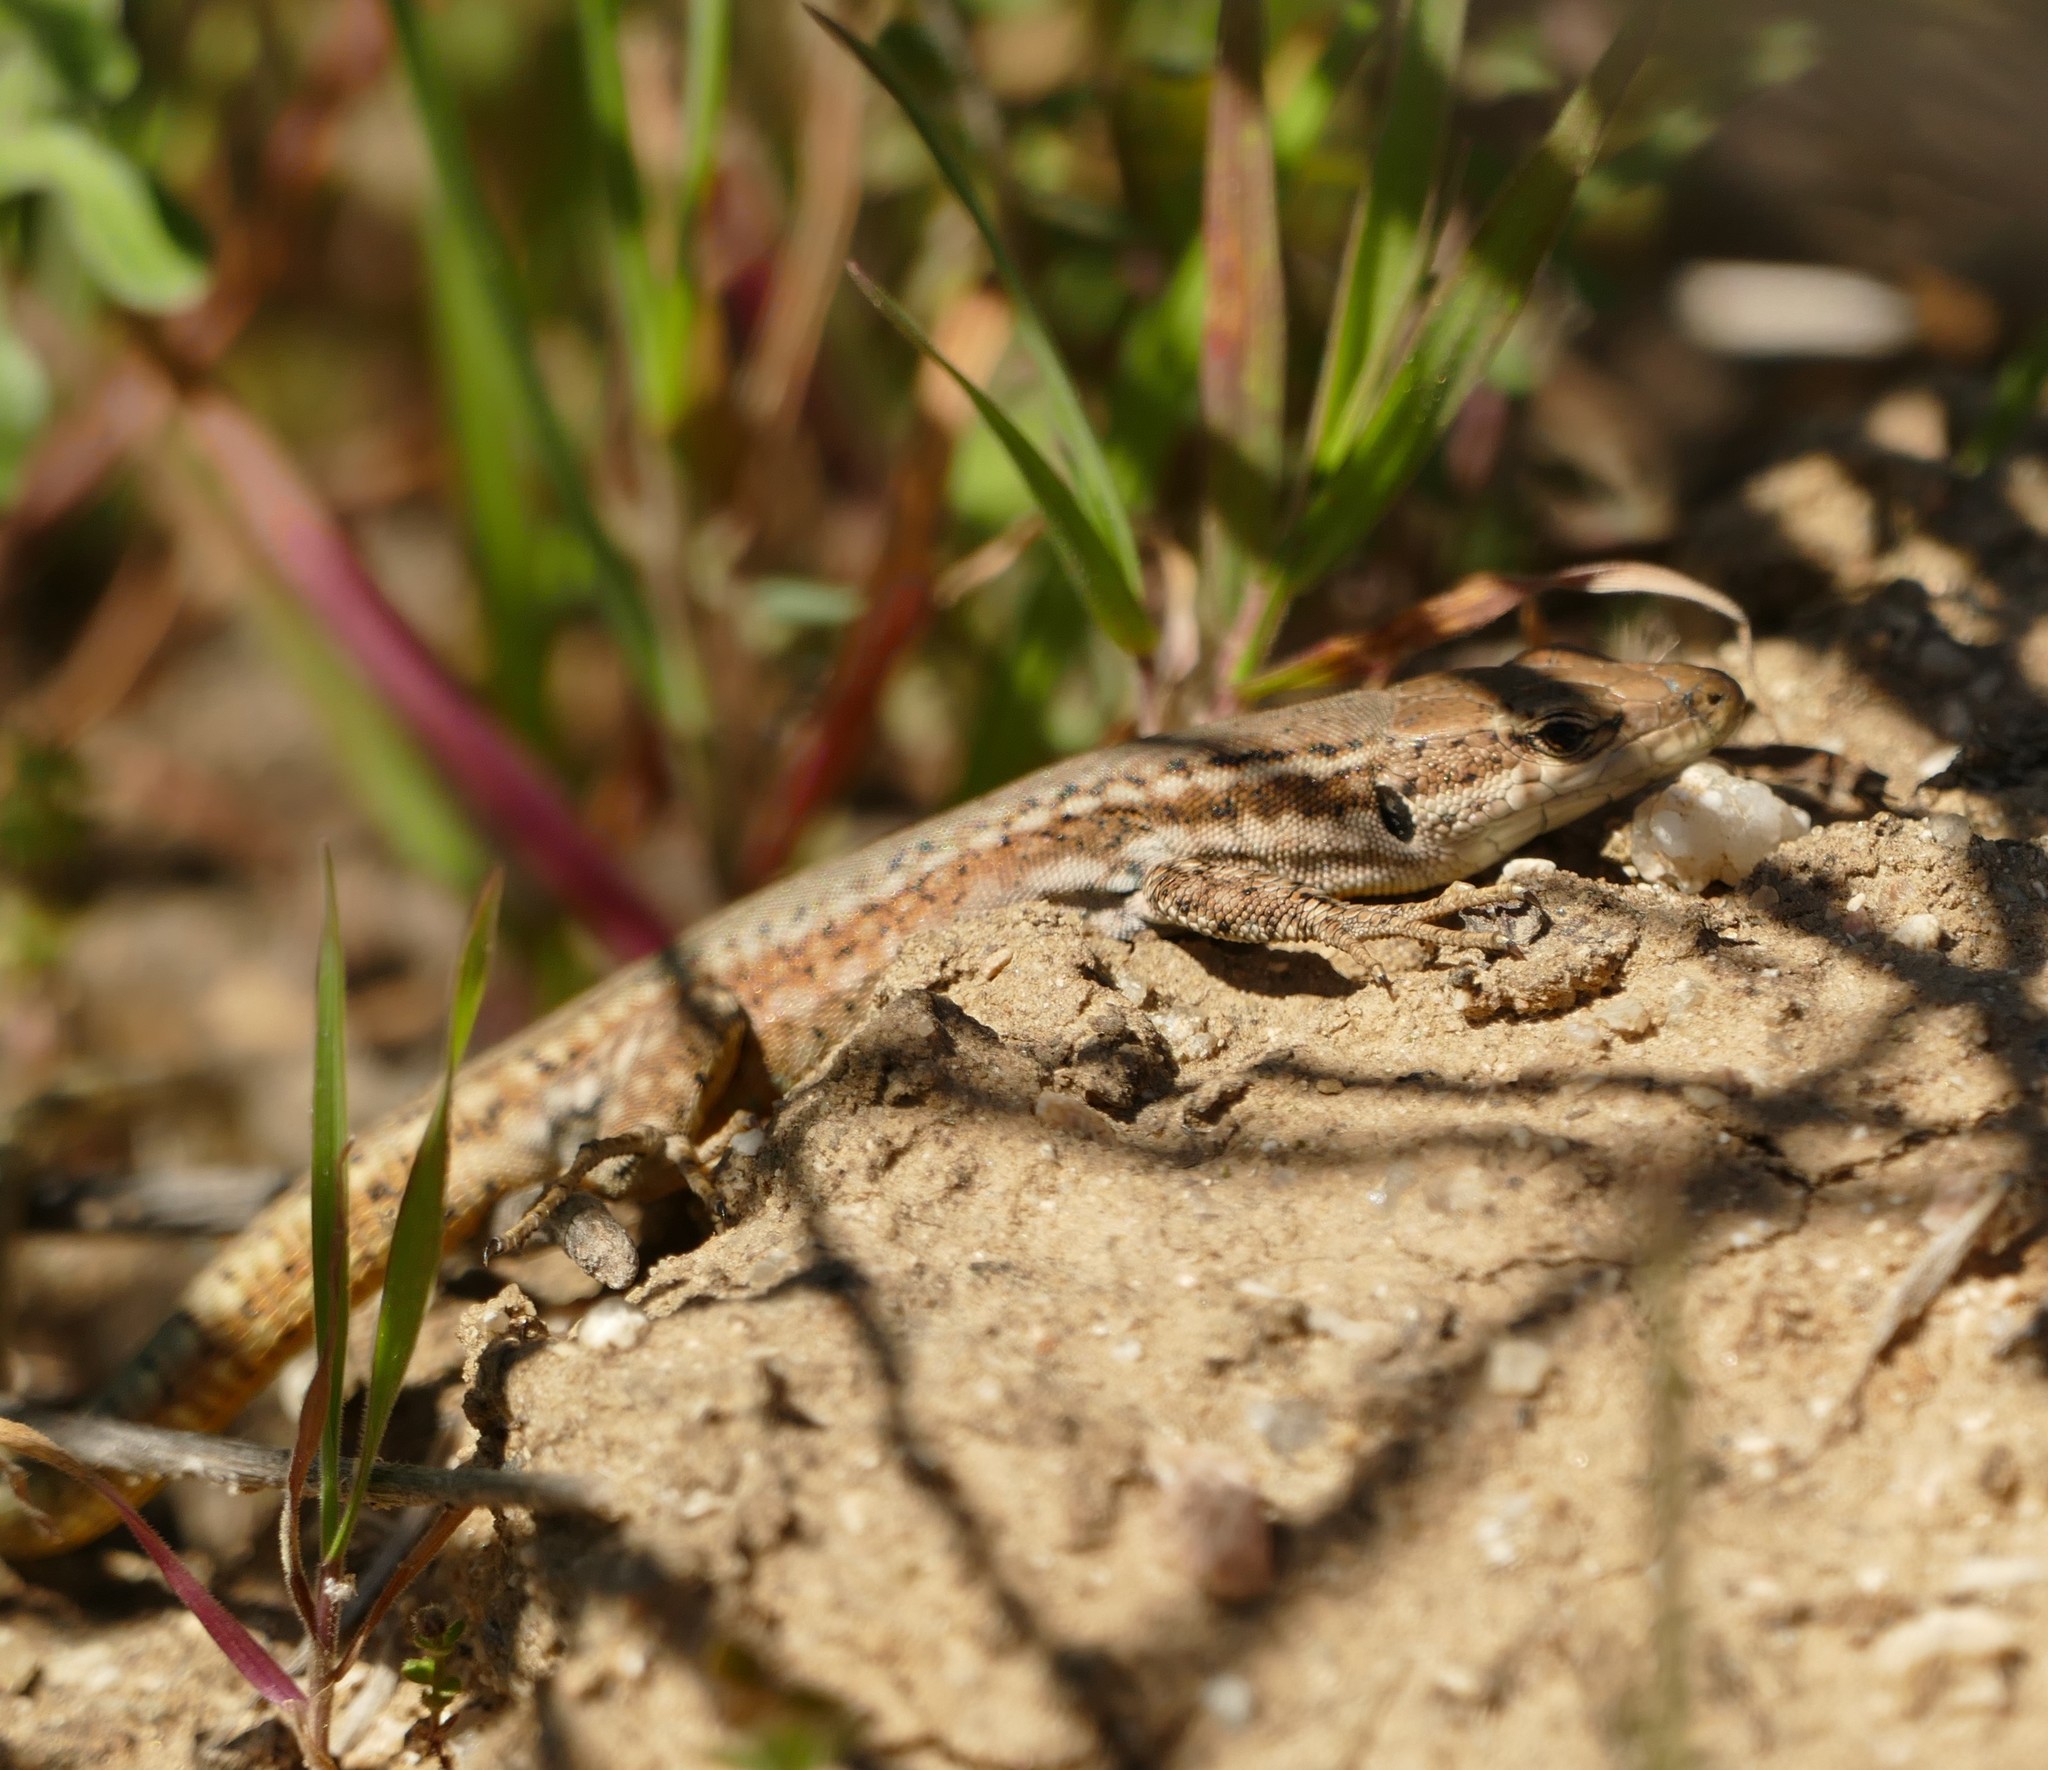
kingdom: Animalia
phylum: Chordata
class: Squamata
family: Lacertidae
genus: Podarcis
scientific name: Podarcis virescens
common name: Geniez’s wall lizard
